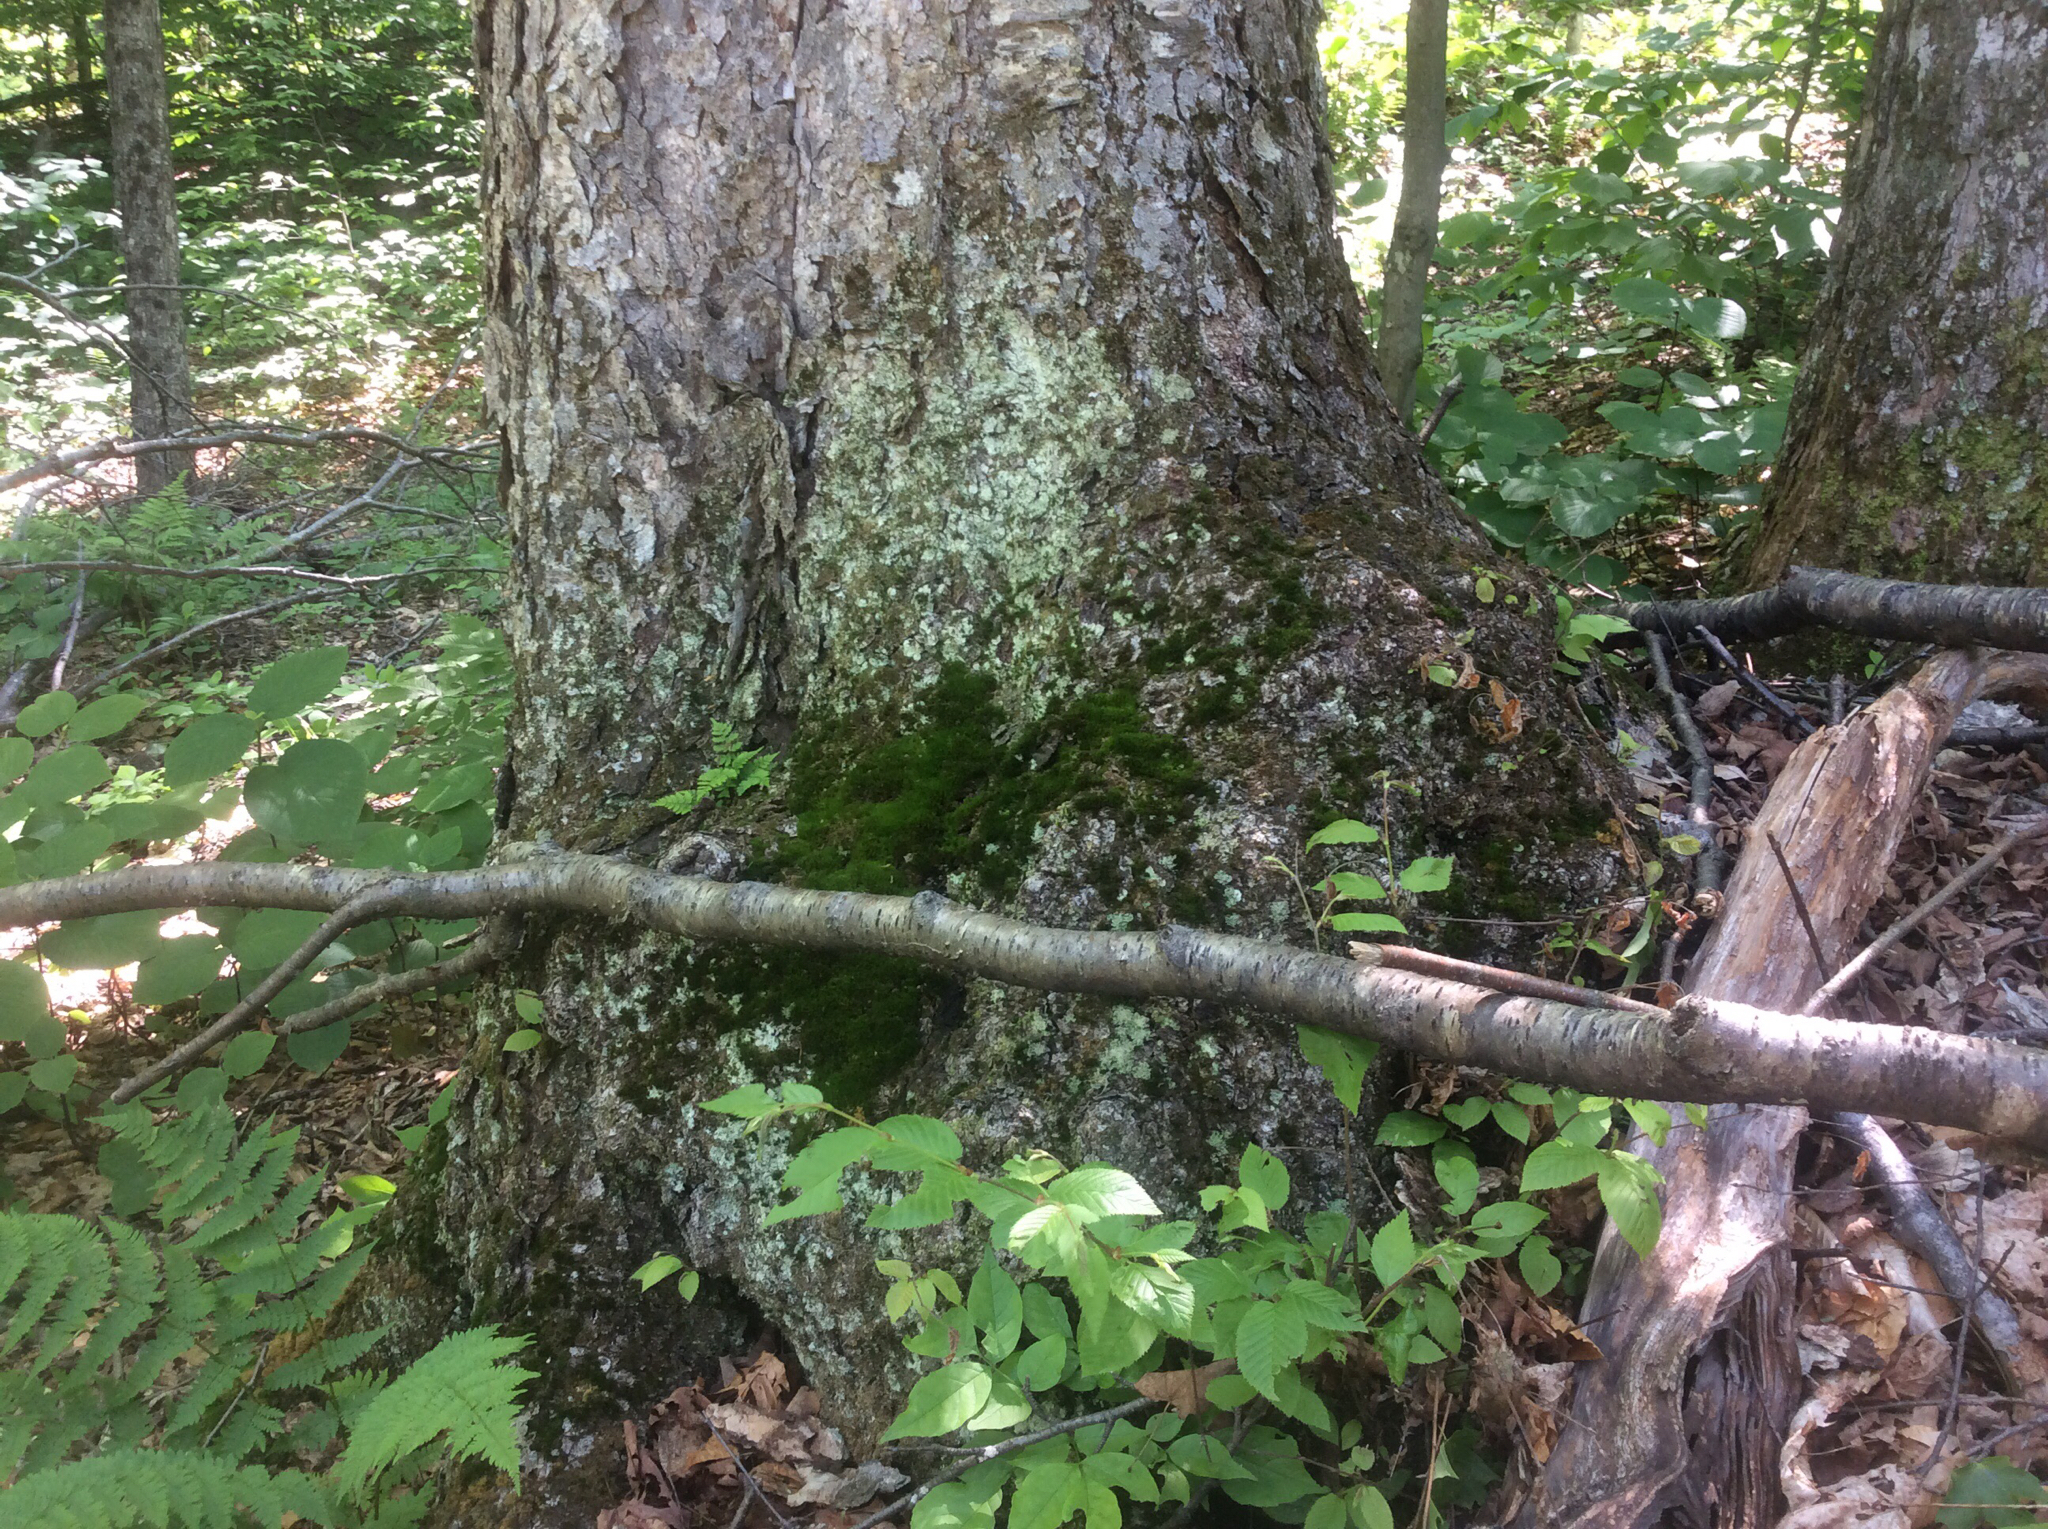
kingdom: Plantae
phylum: Tracheophyta
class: Magnoliopsida
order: Fagales
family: Betulaceae
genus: Betula
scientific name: Betula alleghaniensis
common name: Yellow birch
